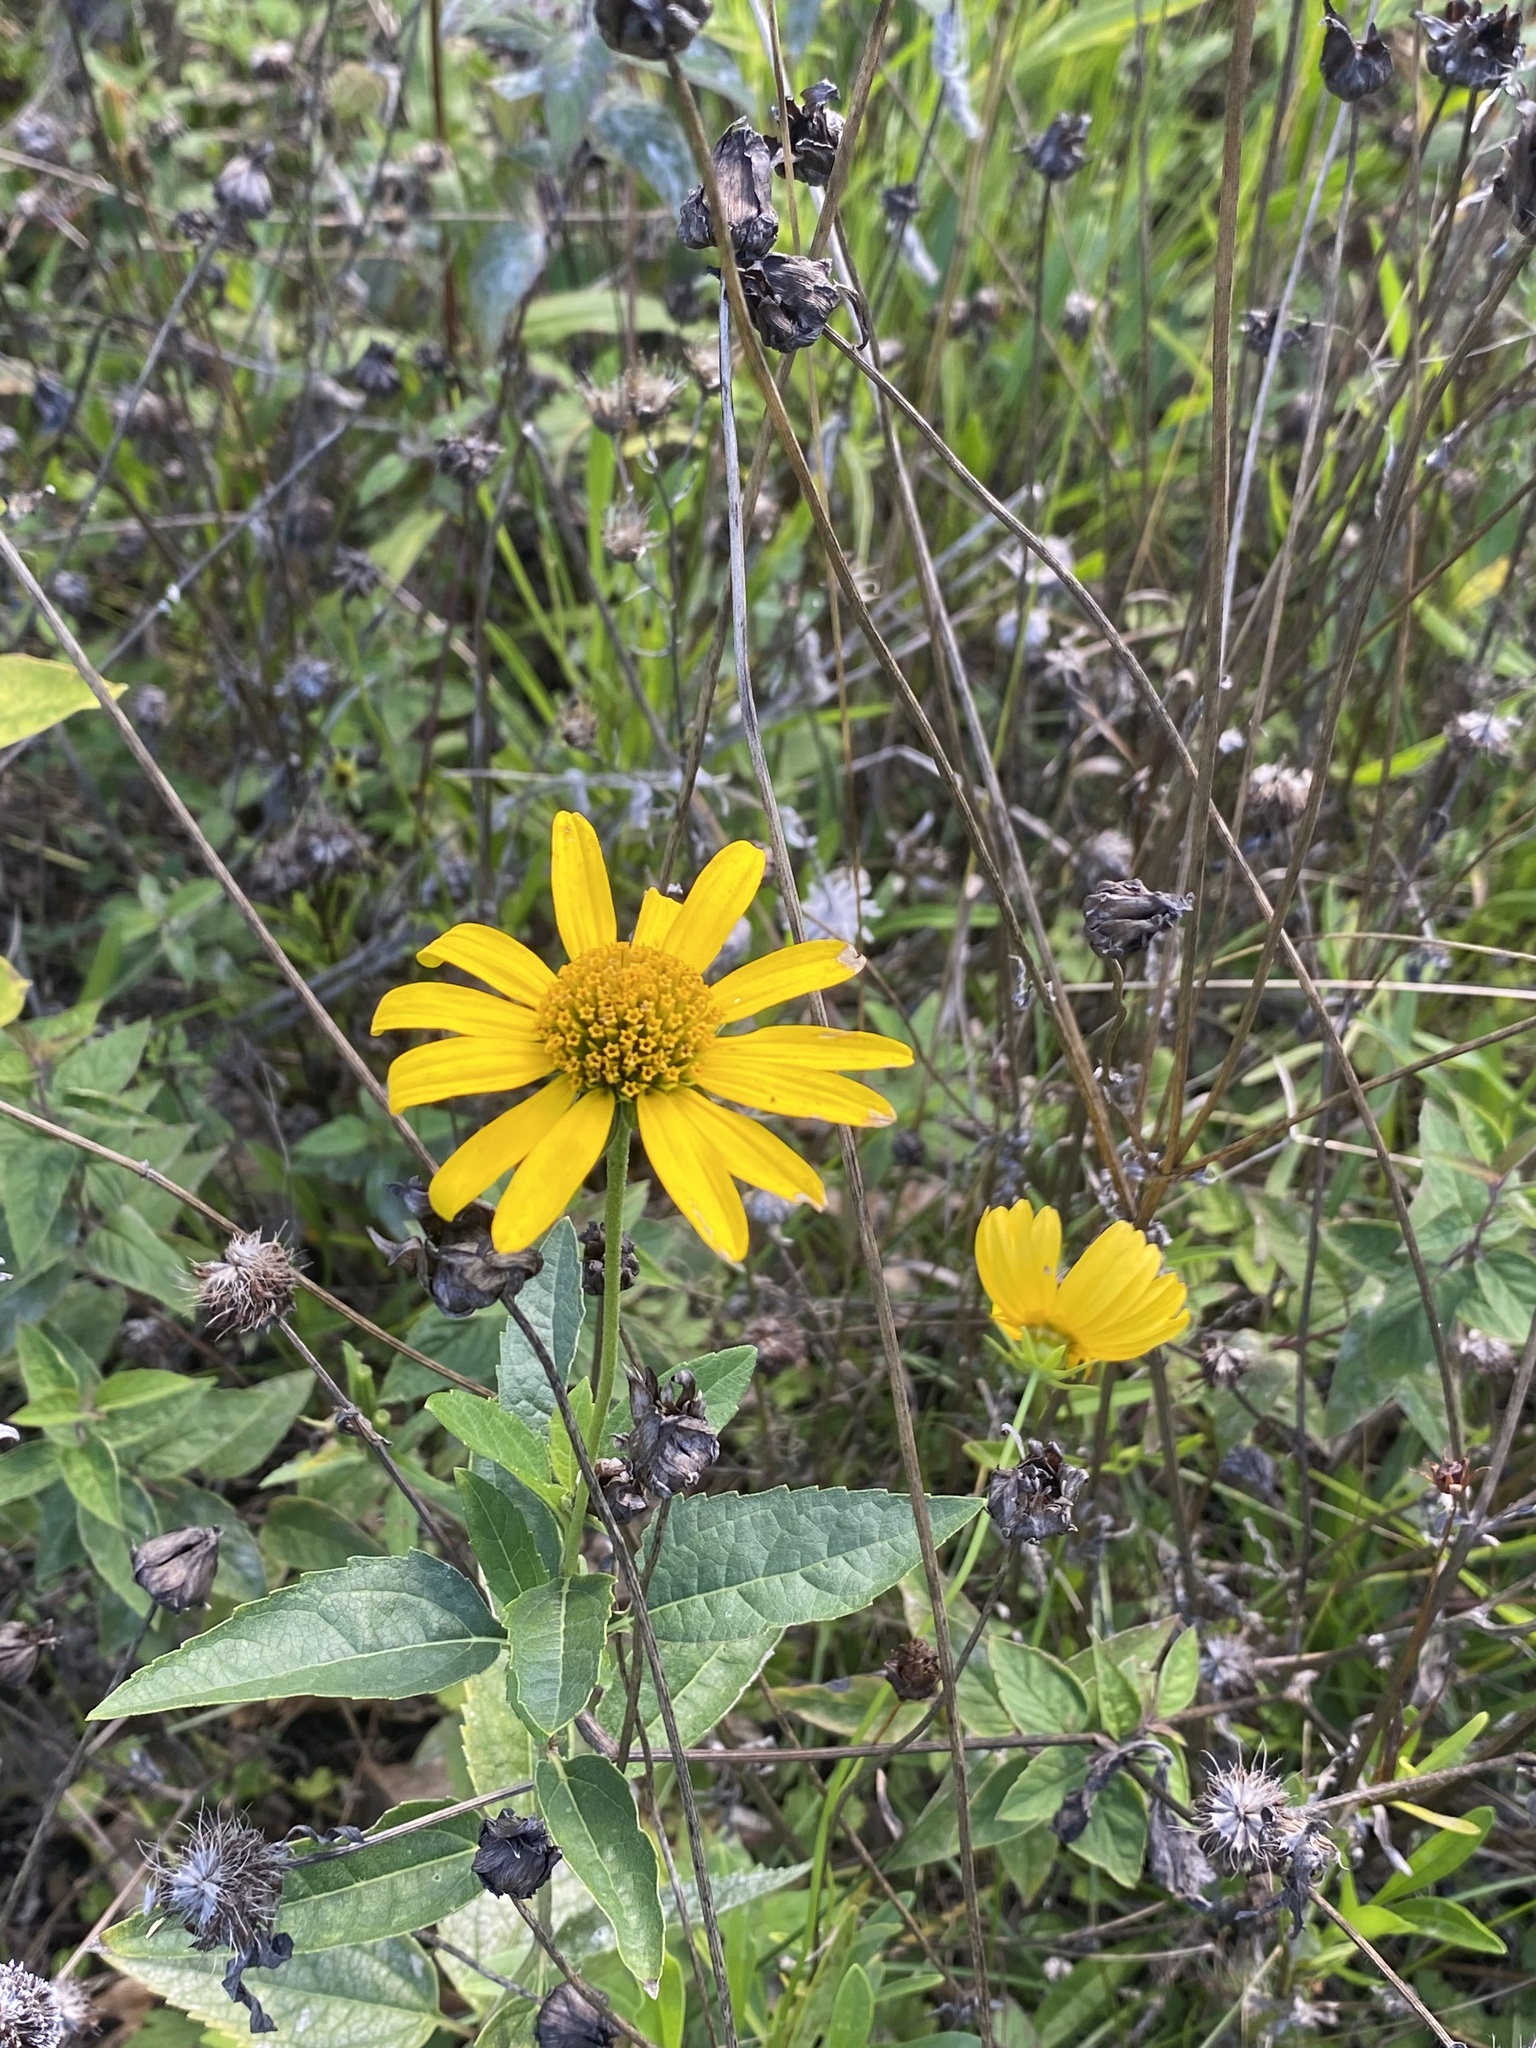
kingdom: Plantae
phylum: Tracheophyta
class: Magnoliopsida
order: Asterales
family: Asteraceae
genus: Heliopsis
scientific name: Heliopsis helianthoides
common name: False sunflower
